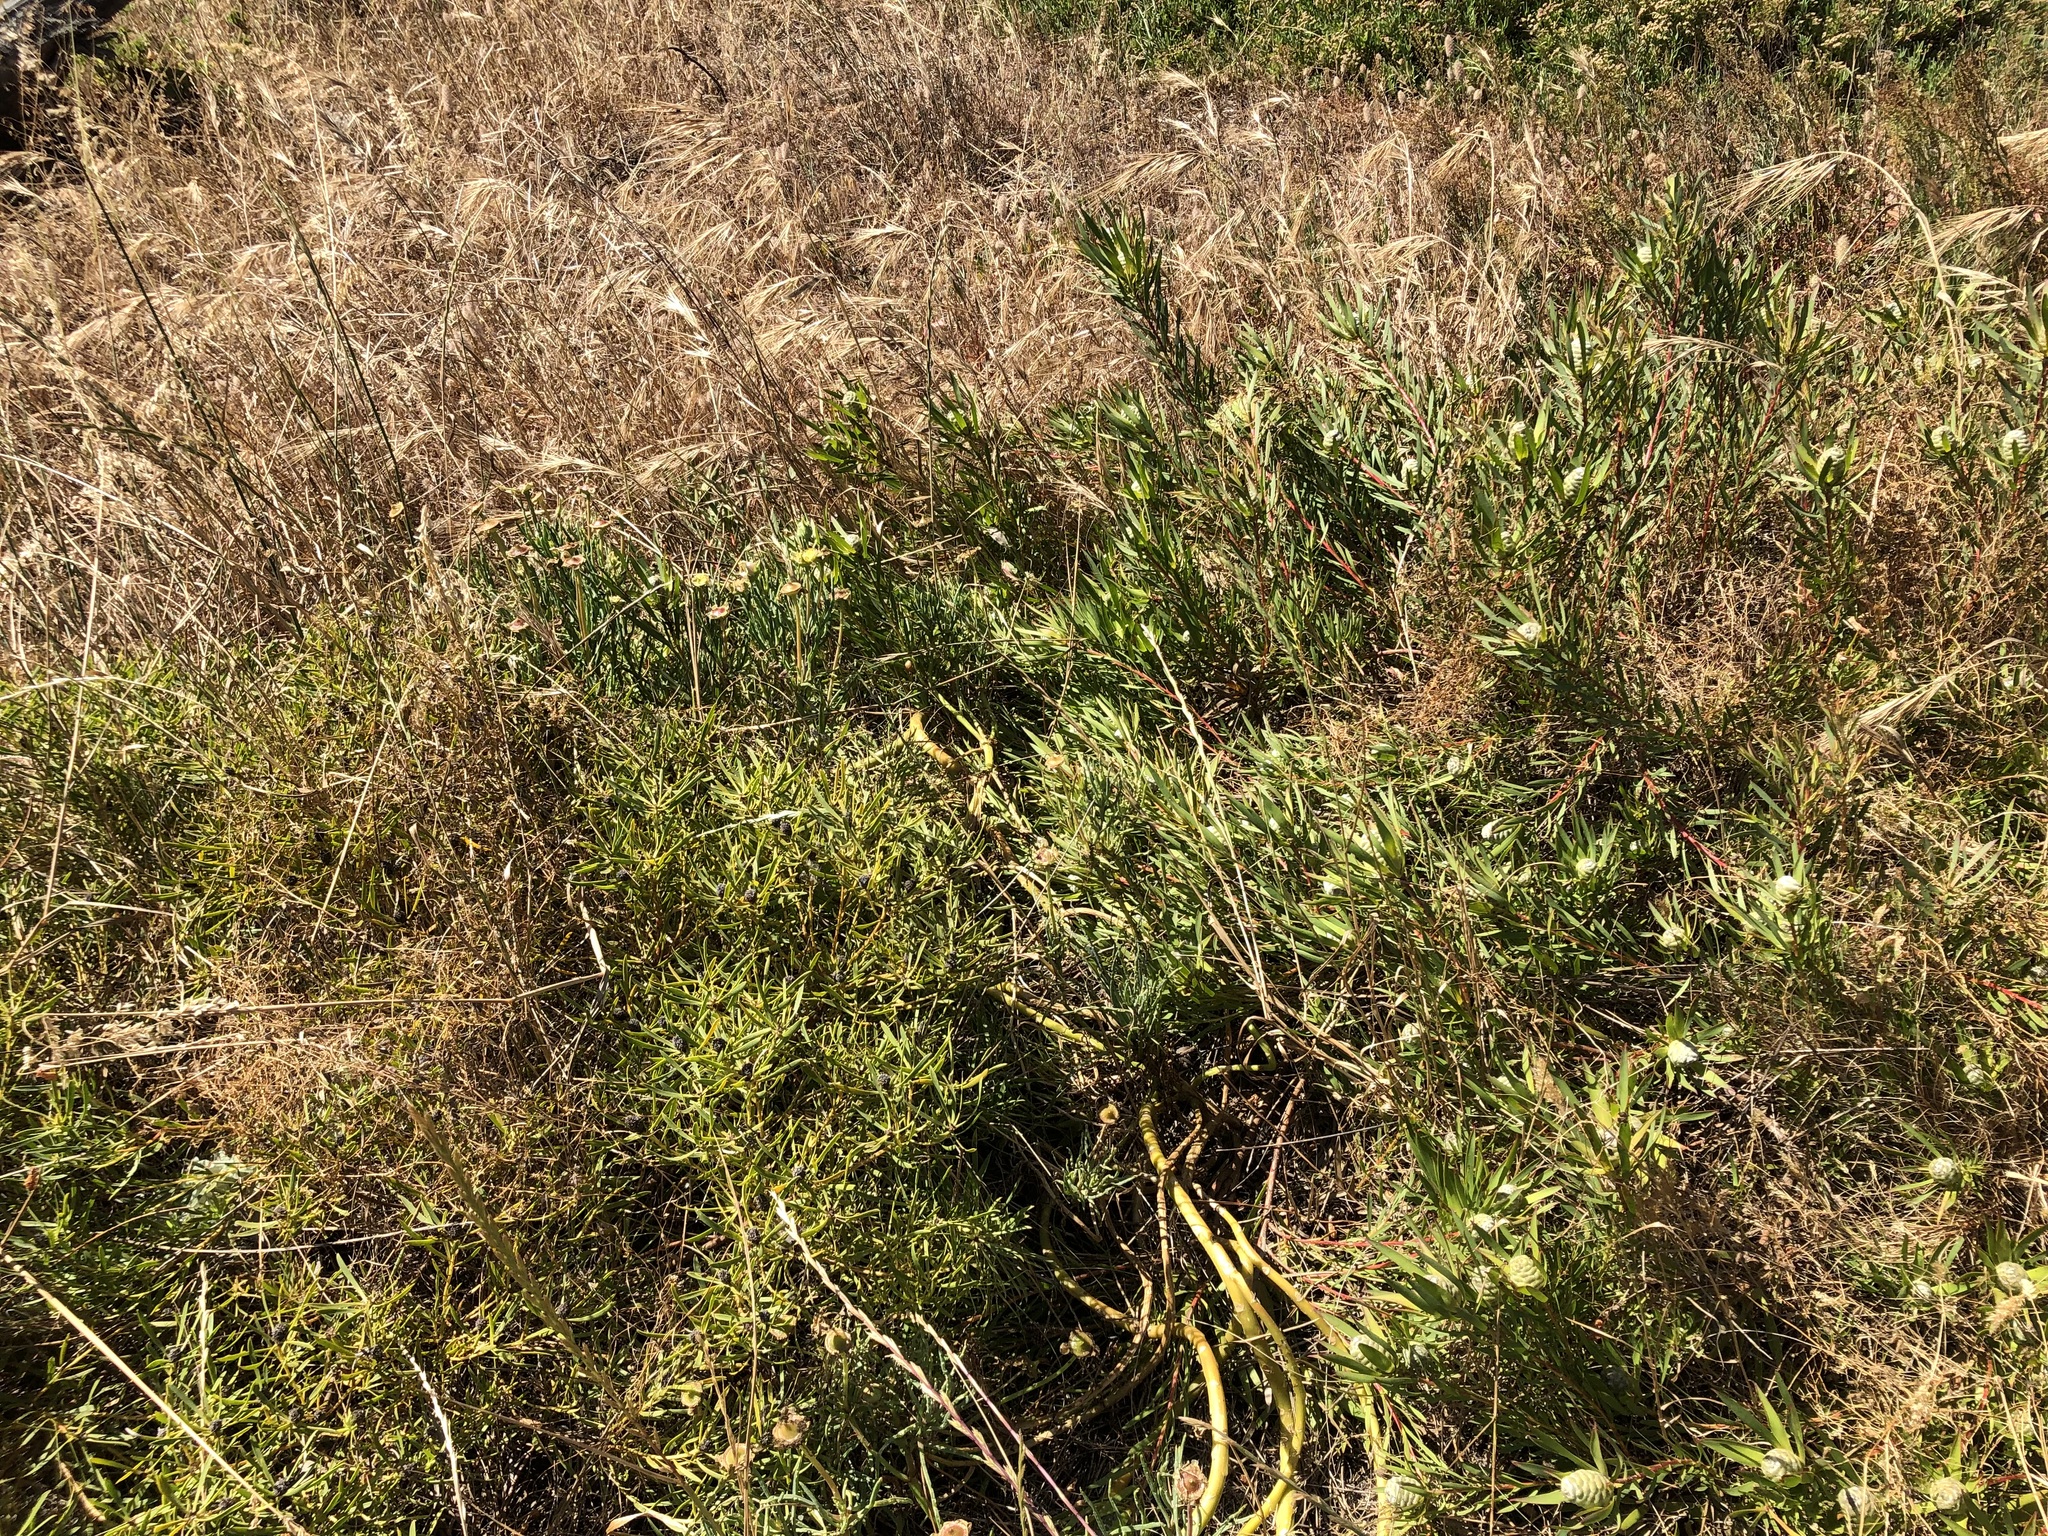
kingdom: Plantae
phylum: Tracheophyta
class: Magnoliopsida
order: Proteales
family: Proteaceae
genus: Leucadendron
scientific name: Leucadendron salignum
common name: Common sunshine conebush
